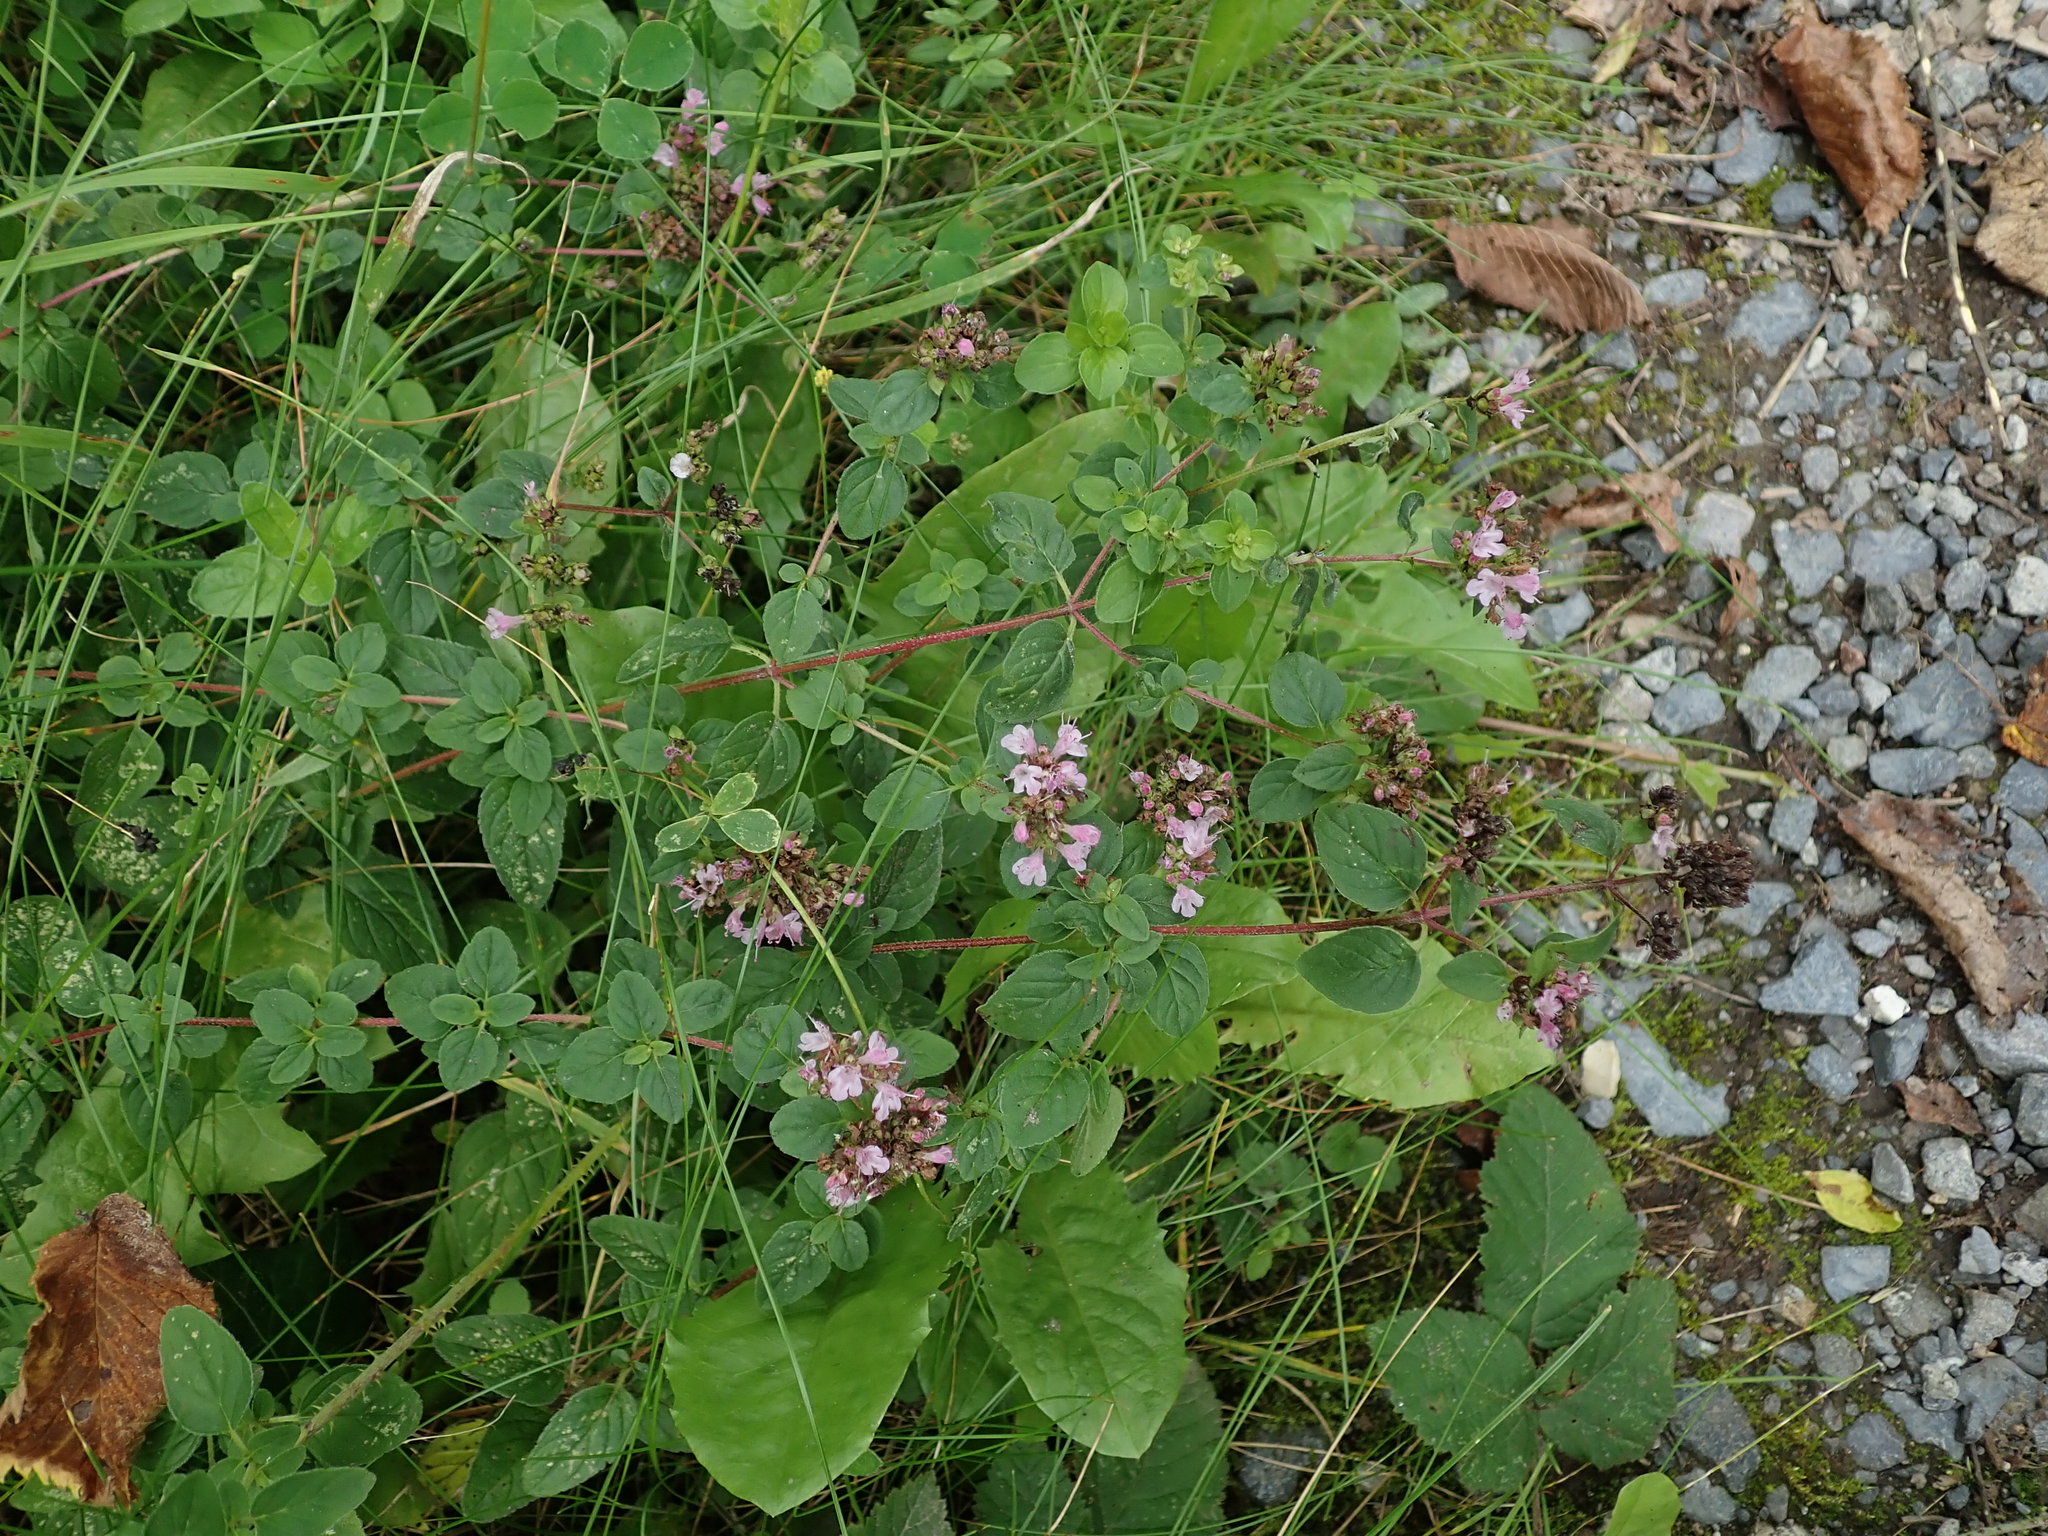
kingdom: Plantae
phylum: Tracheophyta
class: Magnoliopsida
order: Lamiales
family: Lamiaceae
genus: Origanum
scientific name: Origanum vulgare
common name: Wild marjoram
